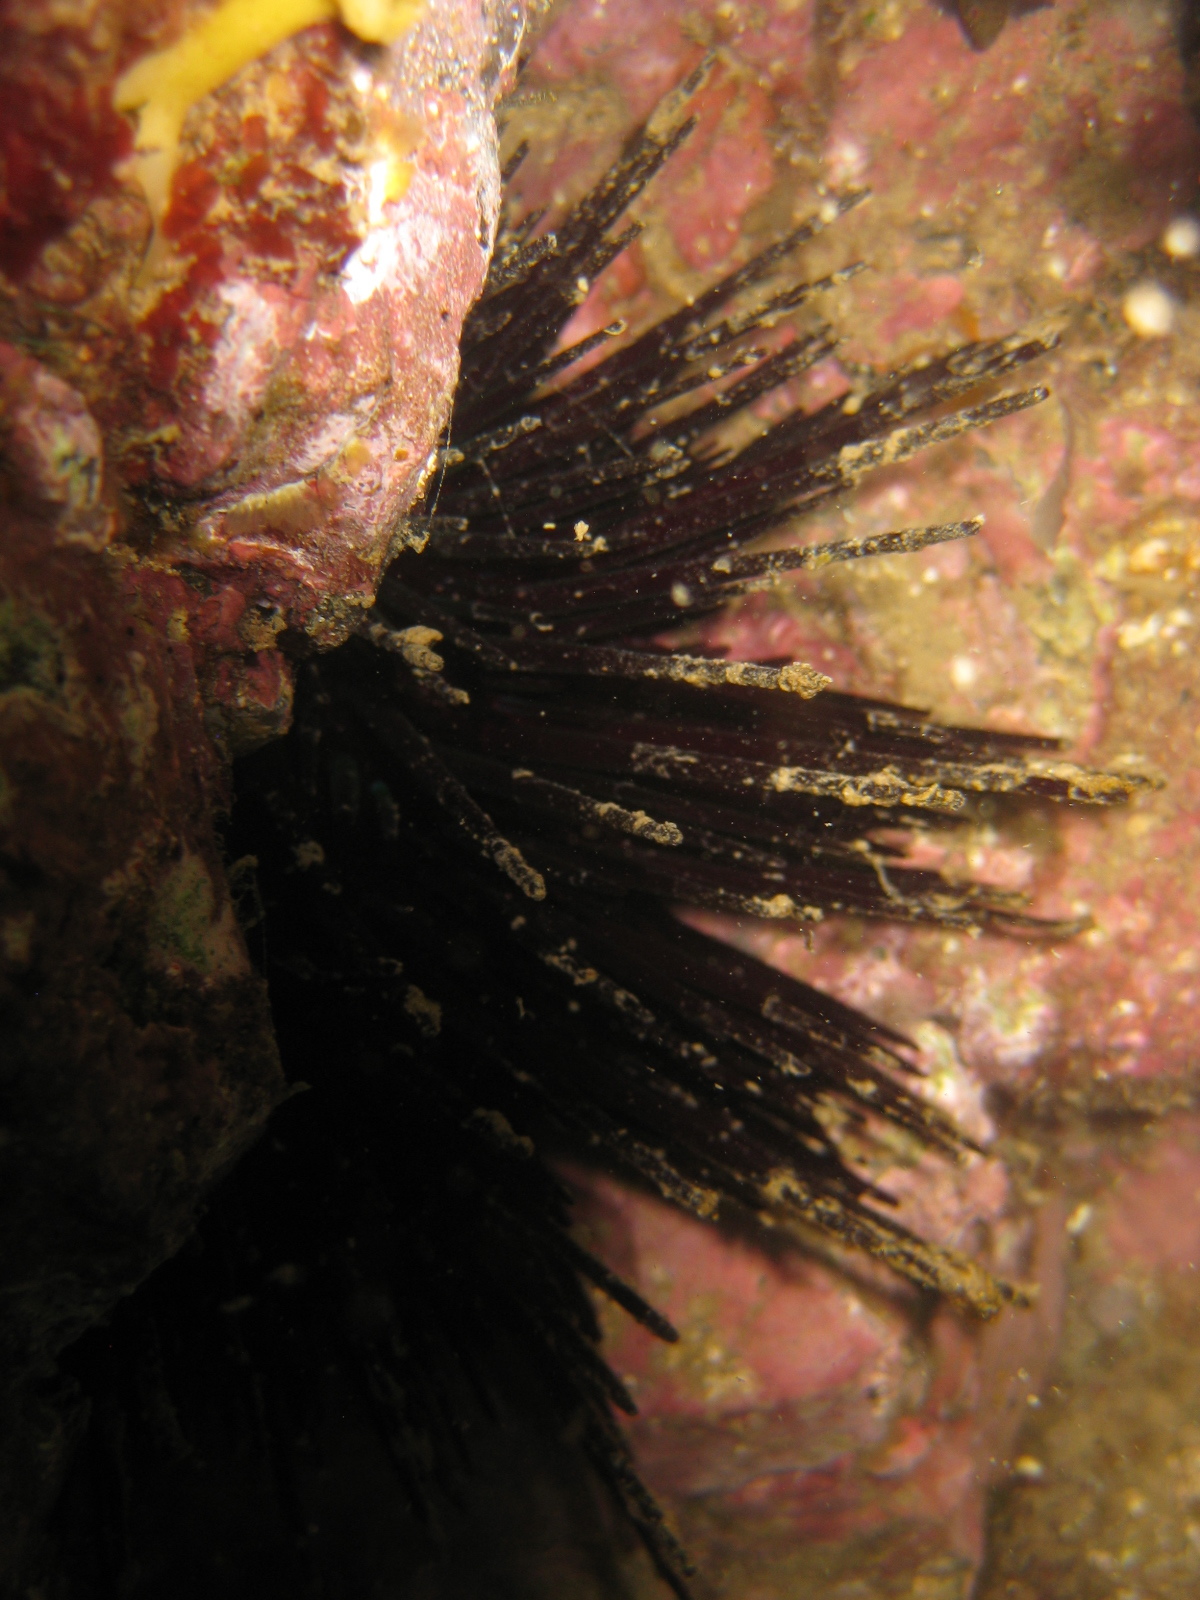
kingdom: Animalia
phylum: Echinodermata
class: Echinoidea
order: Diadematoida
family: Diadematidae
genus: Centrostephanus
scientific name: Centrostephanus rodgersii
